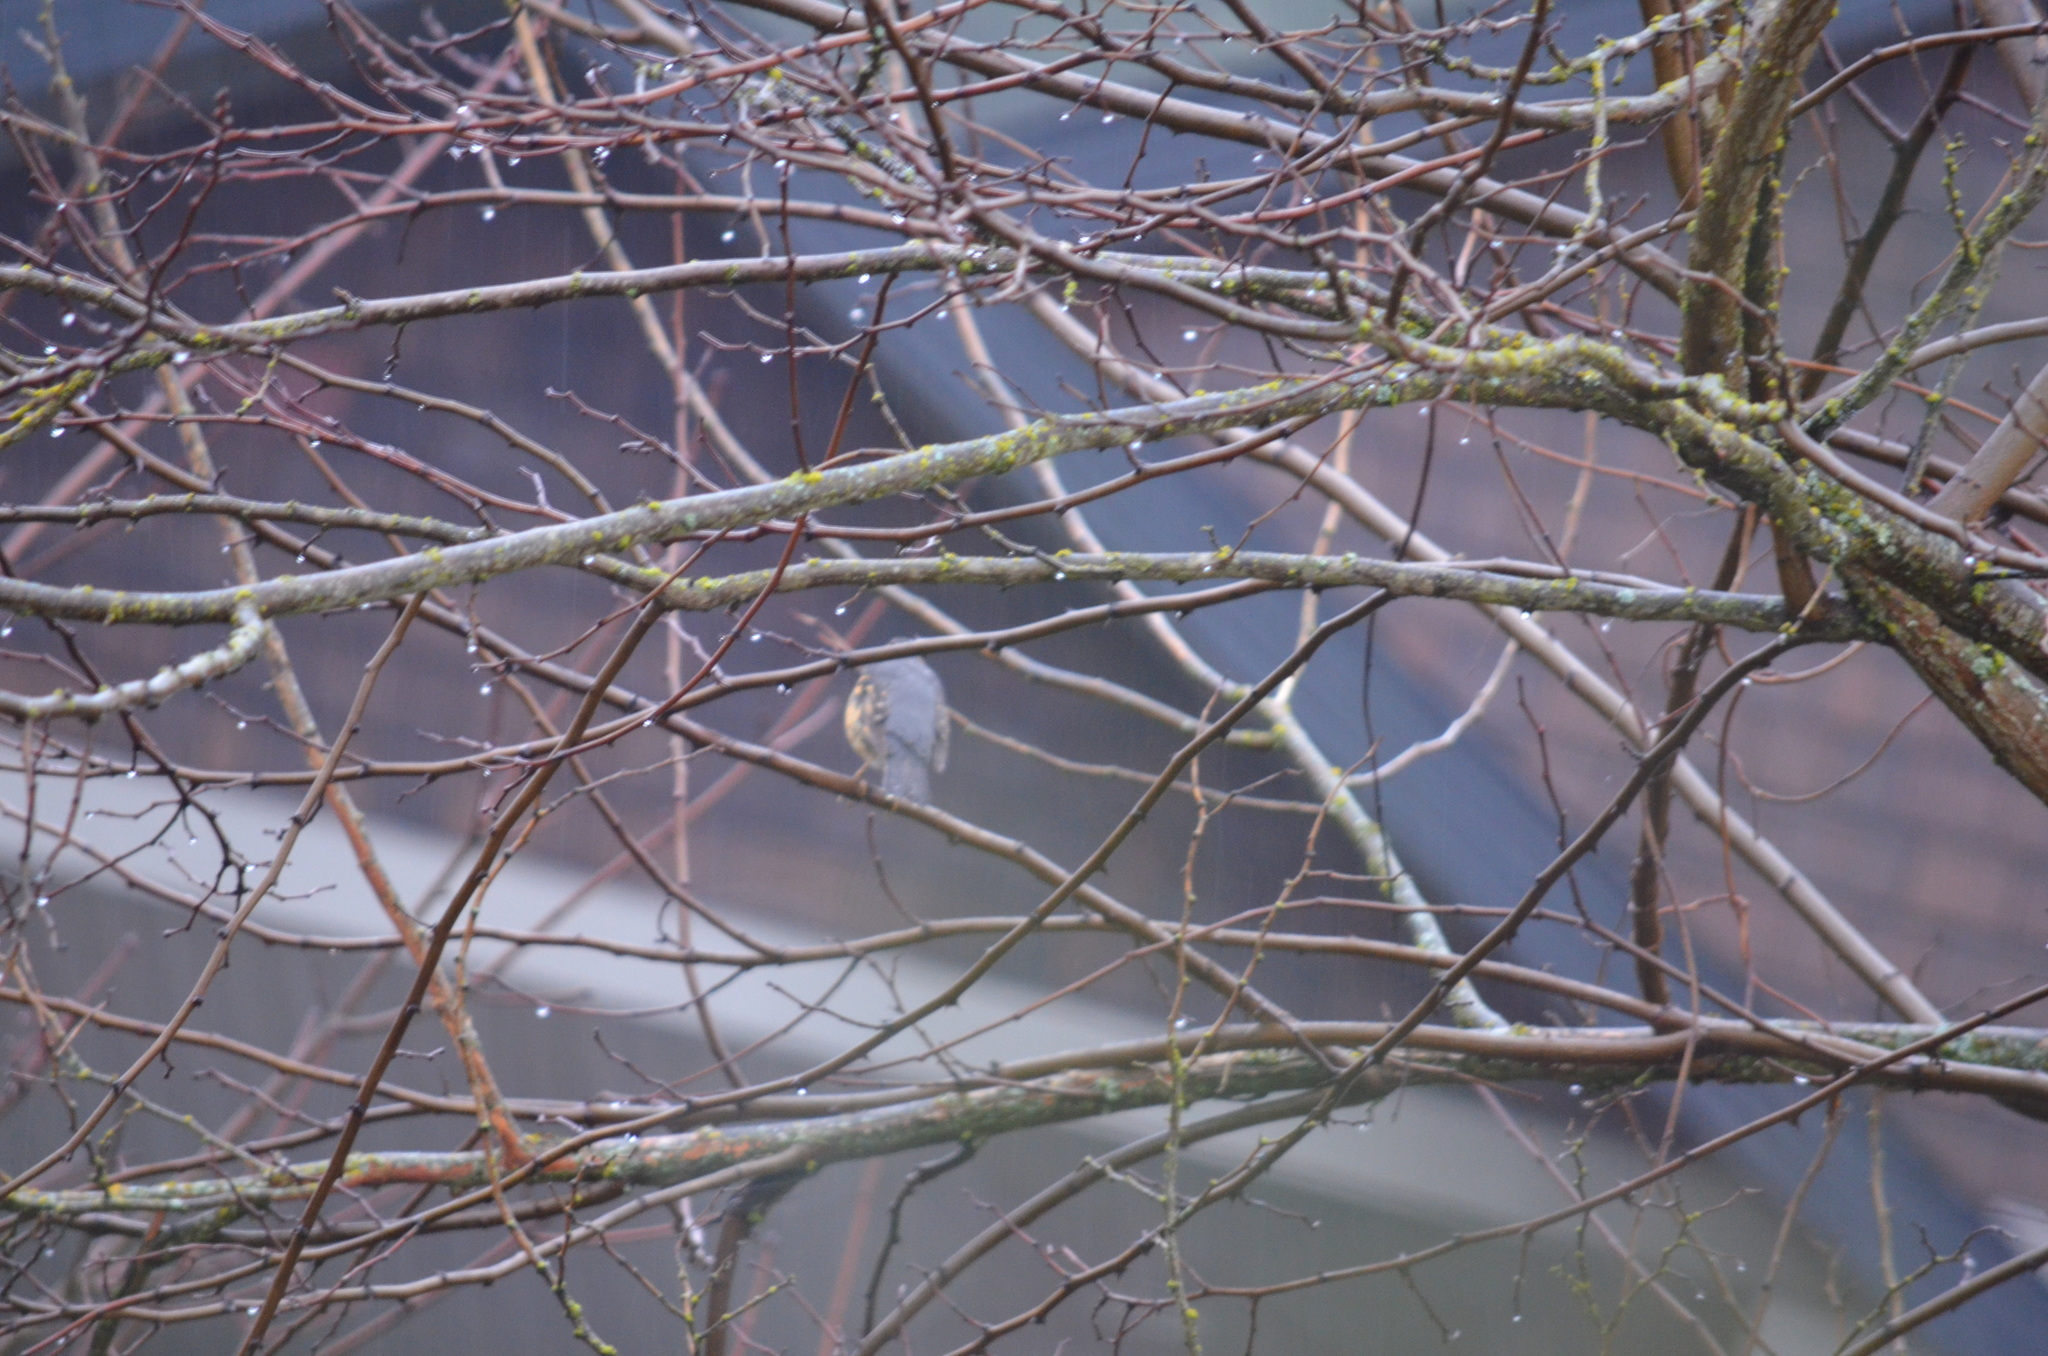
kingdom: Animalia
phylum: Chordata
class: Aves
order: Passeriformes
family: Turdidae
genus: Ixoreus
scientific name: Ixoreus naevius
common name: Varied thrush
